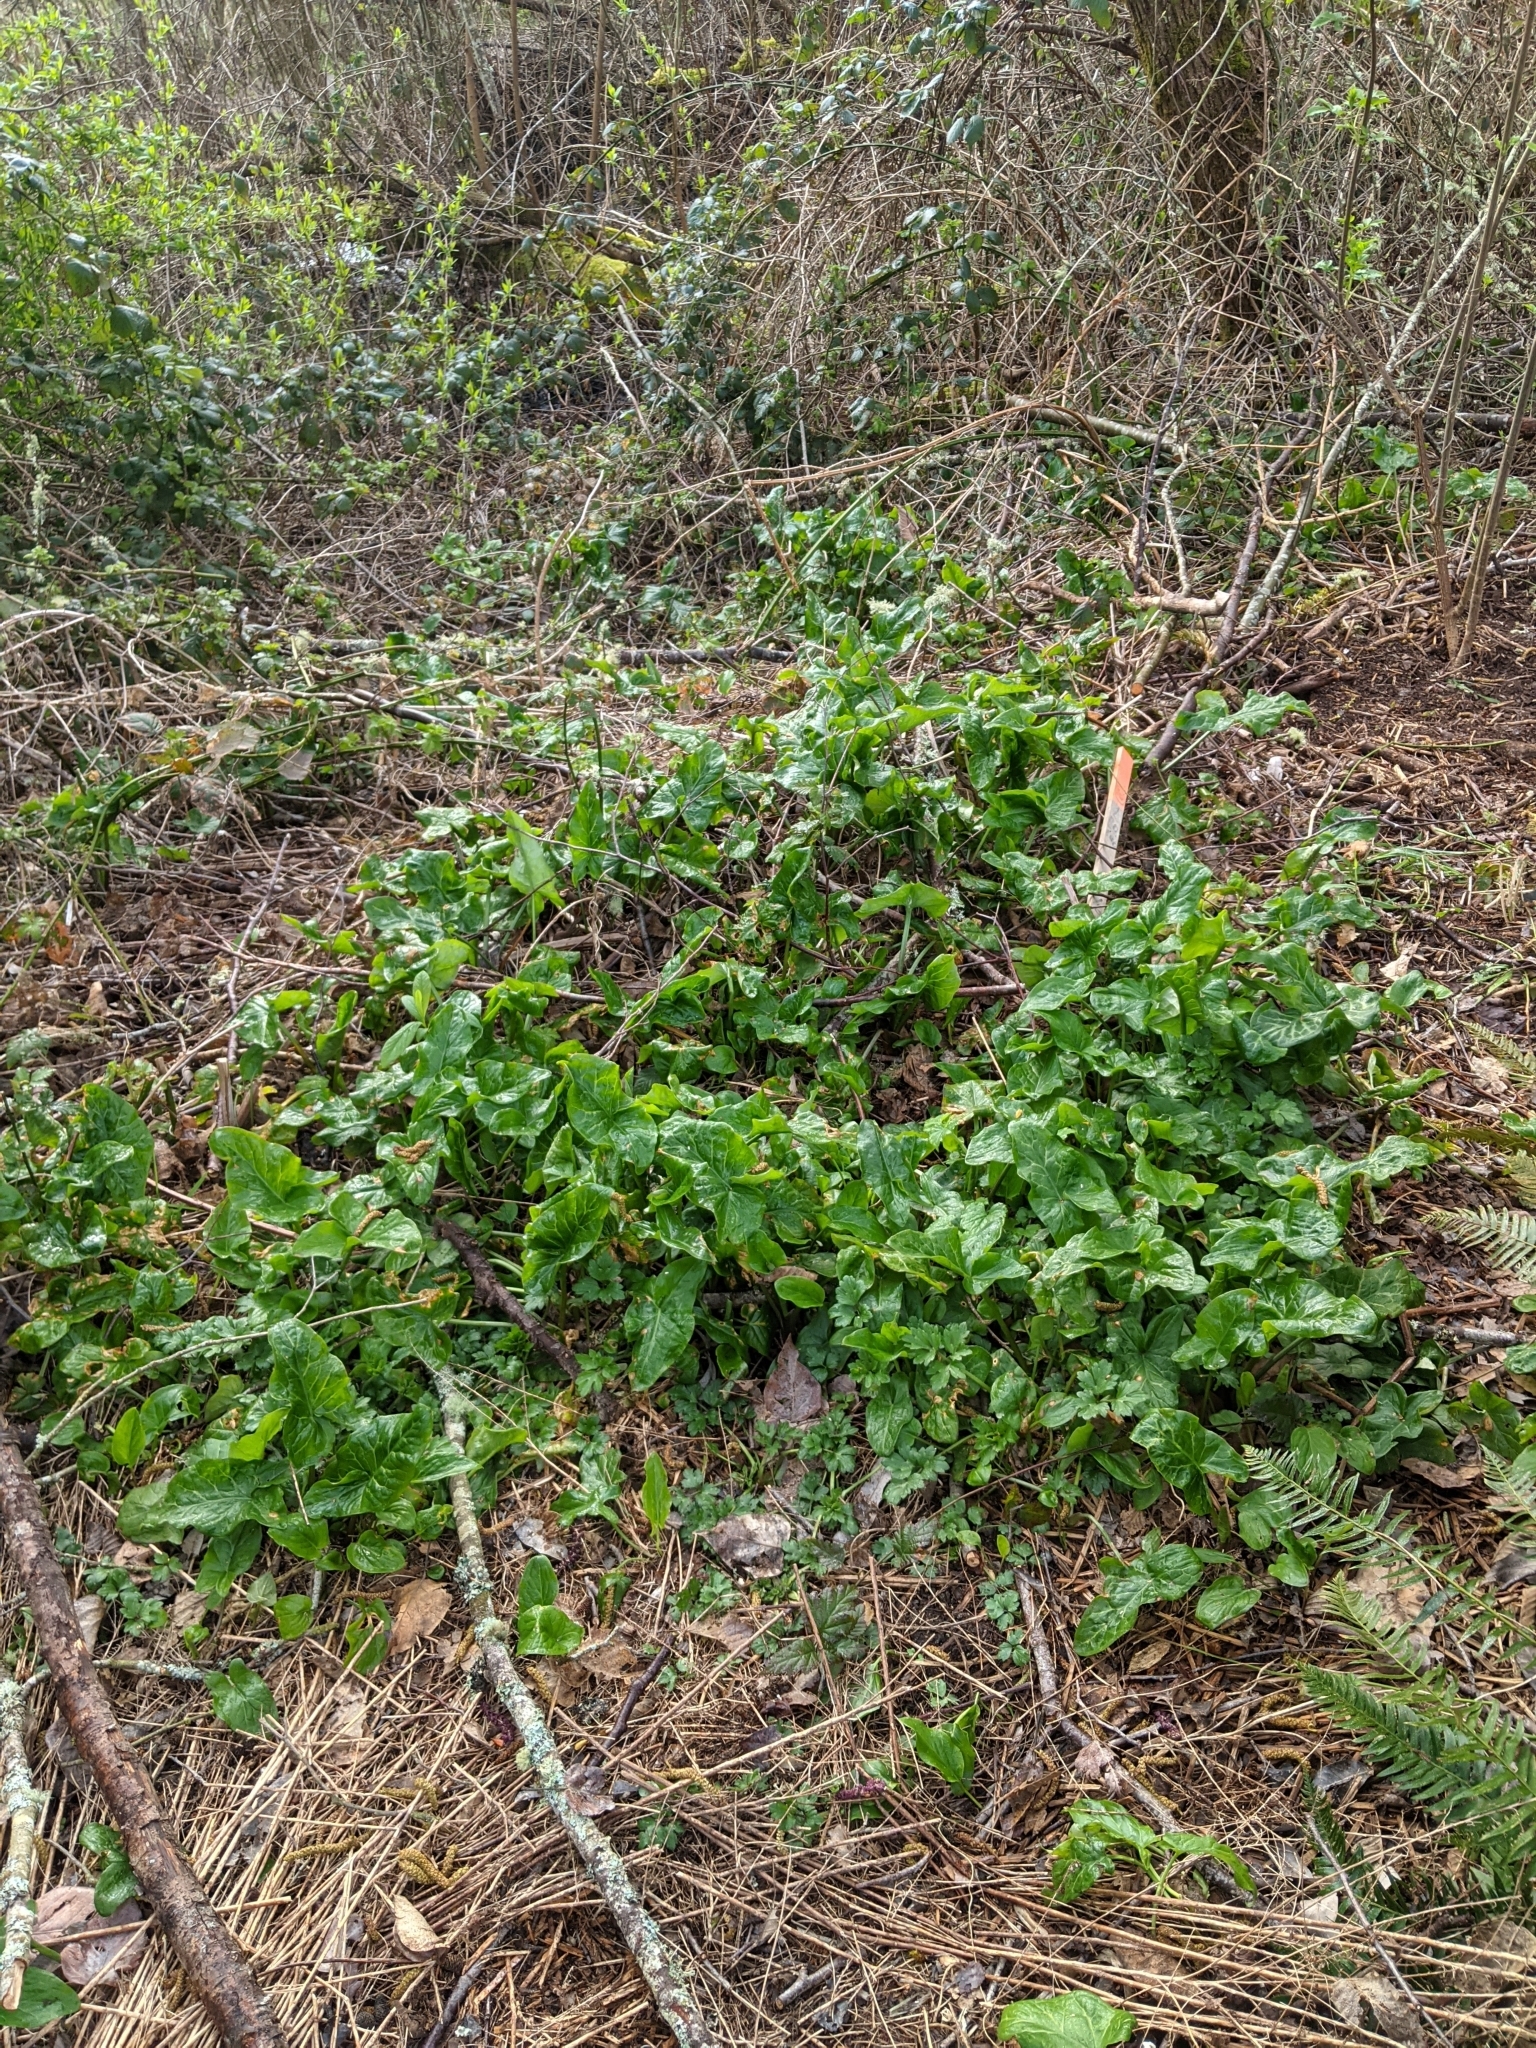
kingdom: Plantae
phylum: Tracheophyta
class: Liliopsida
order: Alismatales
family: Araceae
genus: Arum
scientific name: Arum italicum
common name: Italian lords-and-ladies
